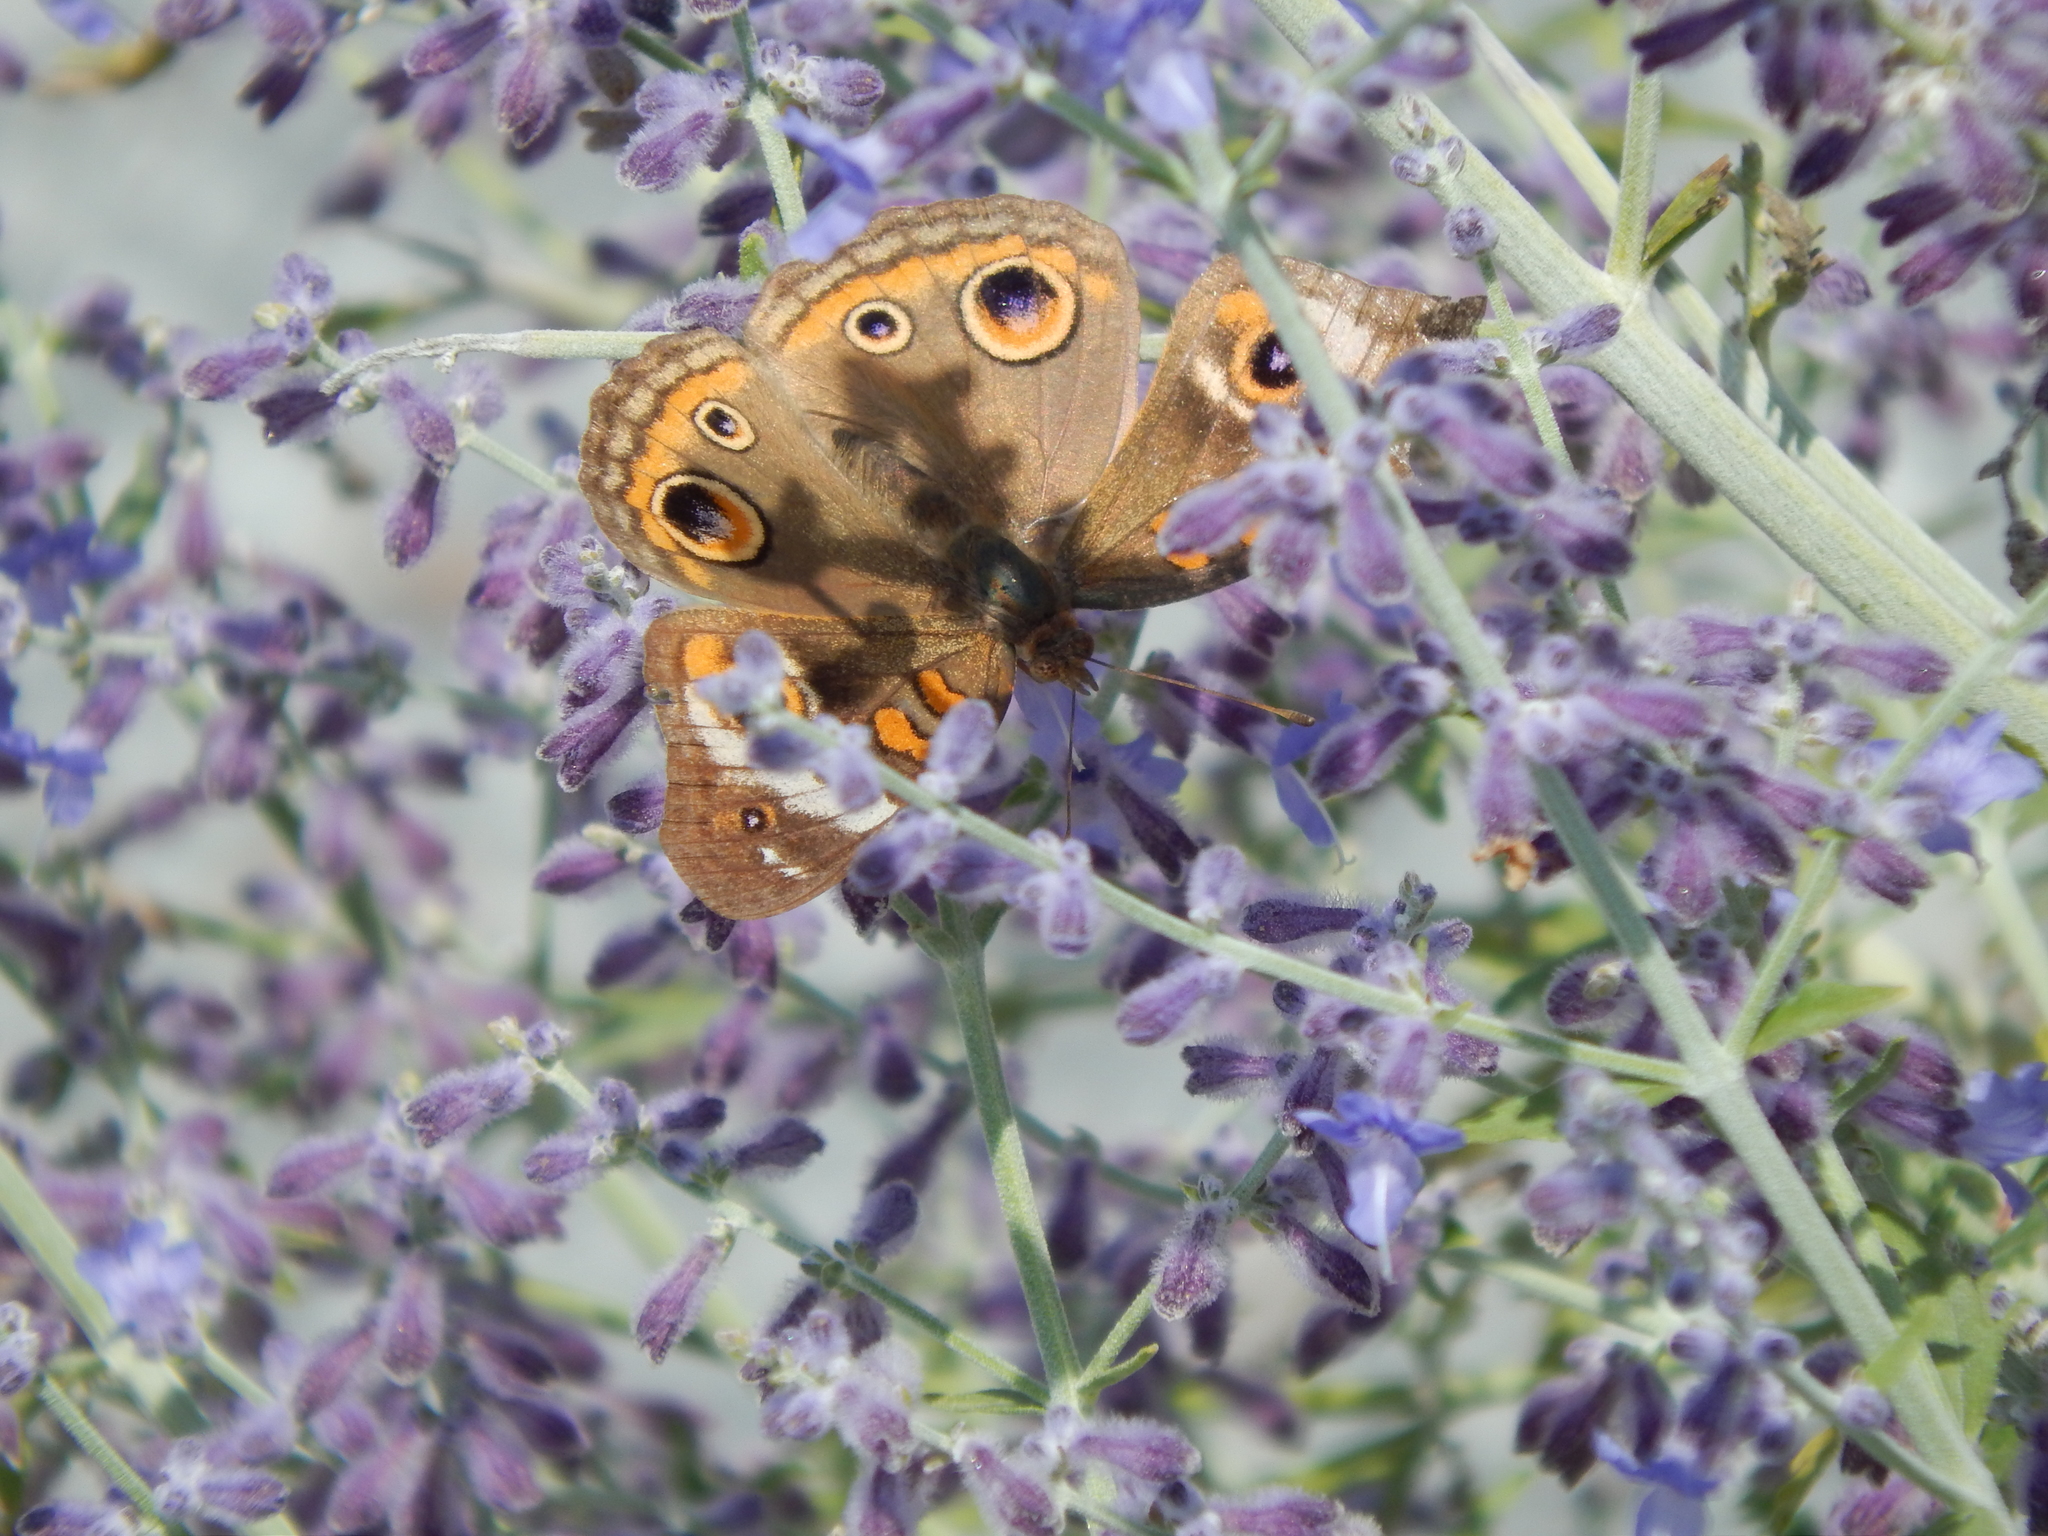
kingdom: Animalia
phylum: Arthropoda
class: Insecta
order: Lepidoptera
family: Nymphalidae
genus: Junonia
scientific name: Junonia coenia
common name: Common buckeye
